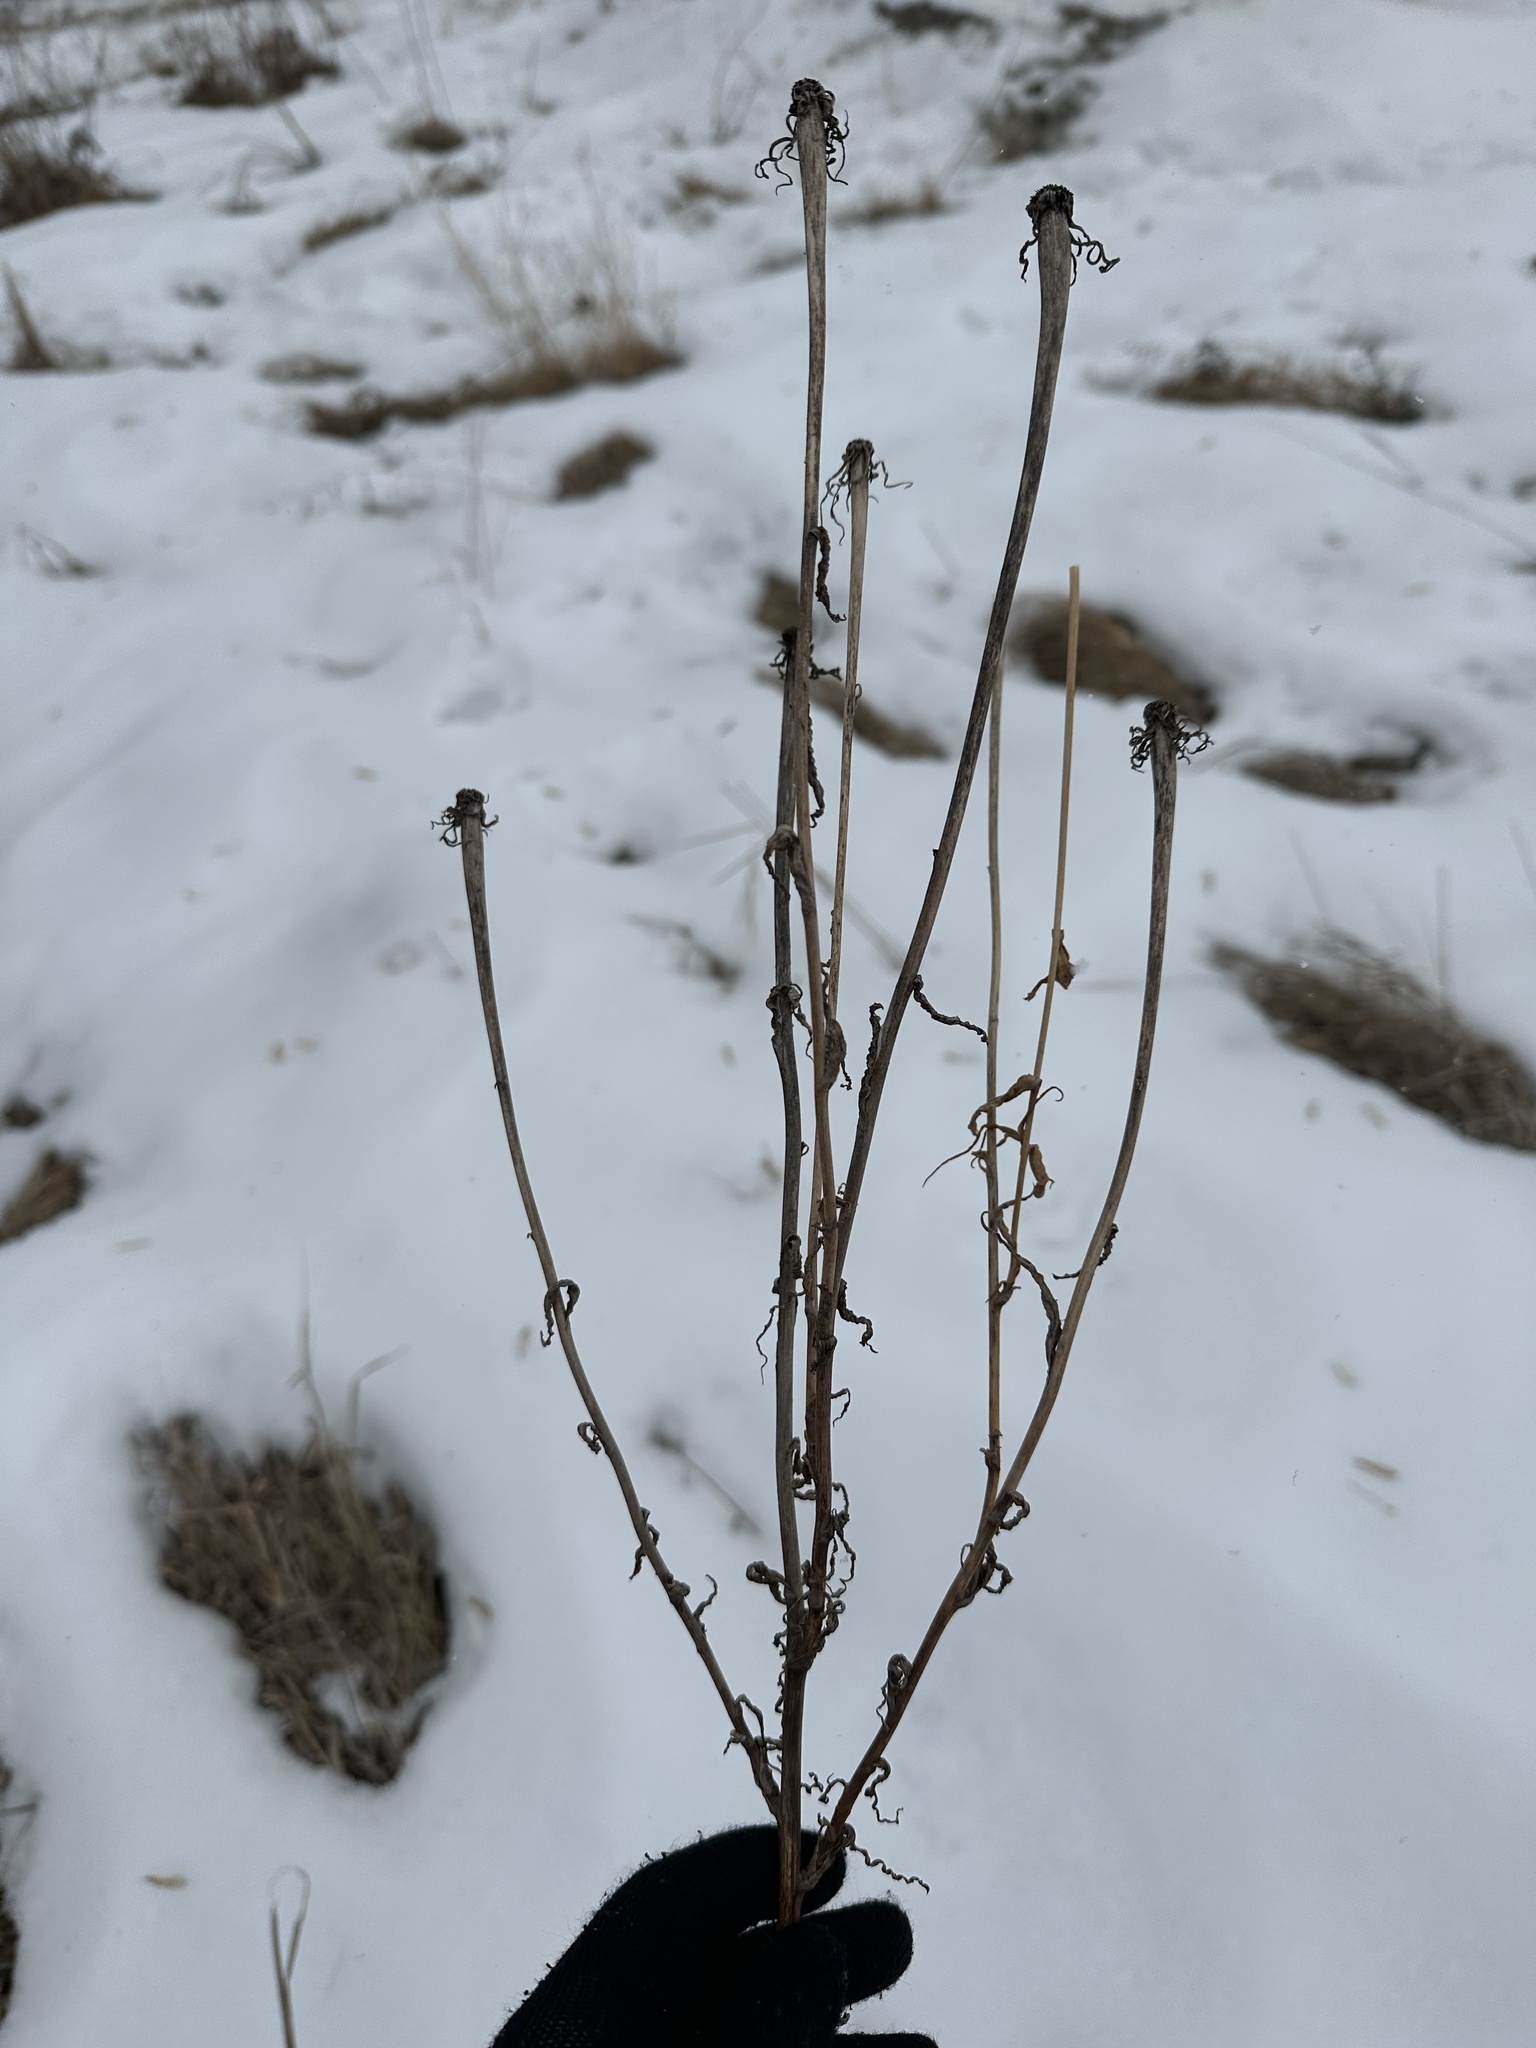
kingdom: Plantae
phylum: Tracheophyta
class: Magnoliopsida
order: Asterales
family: Asteraceae
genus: Tragopogon
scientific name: Tragopogon dubius
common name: Yellow salsify
